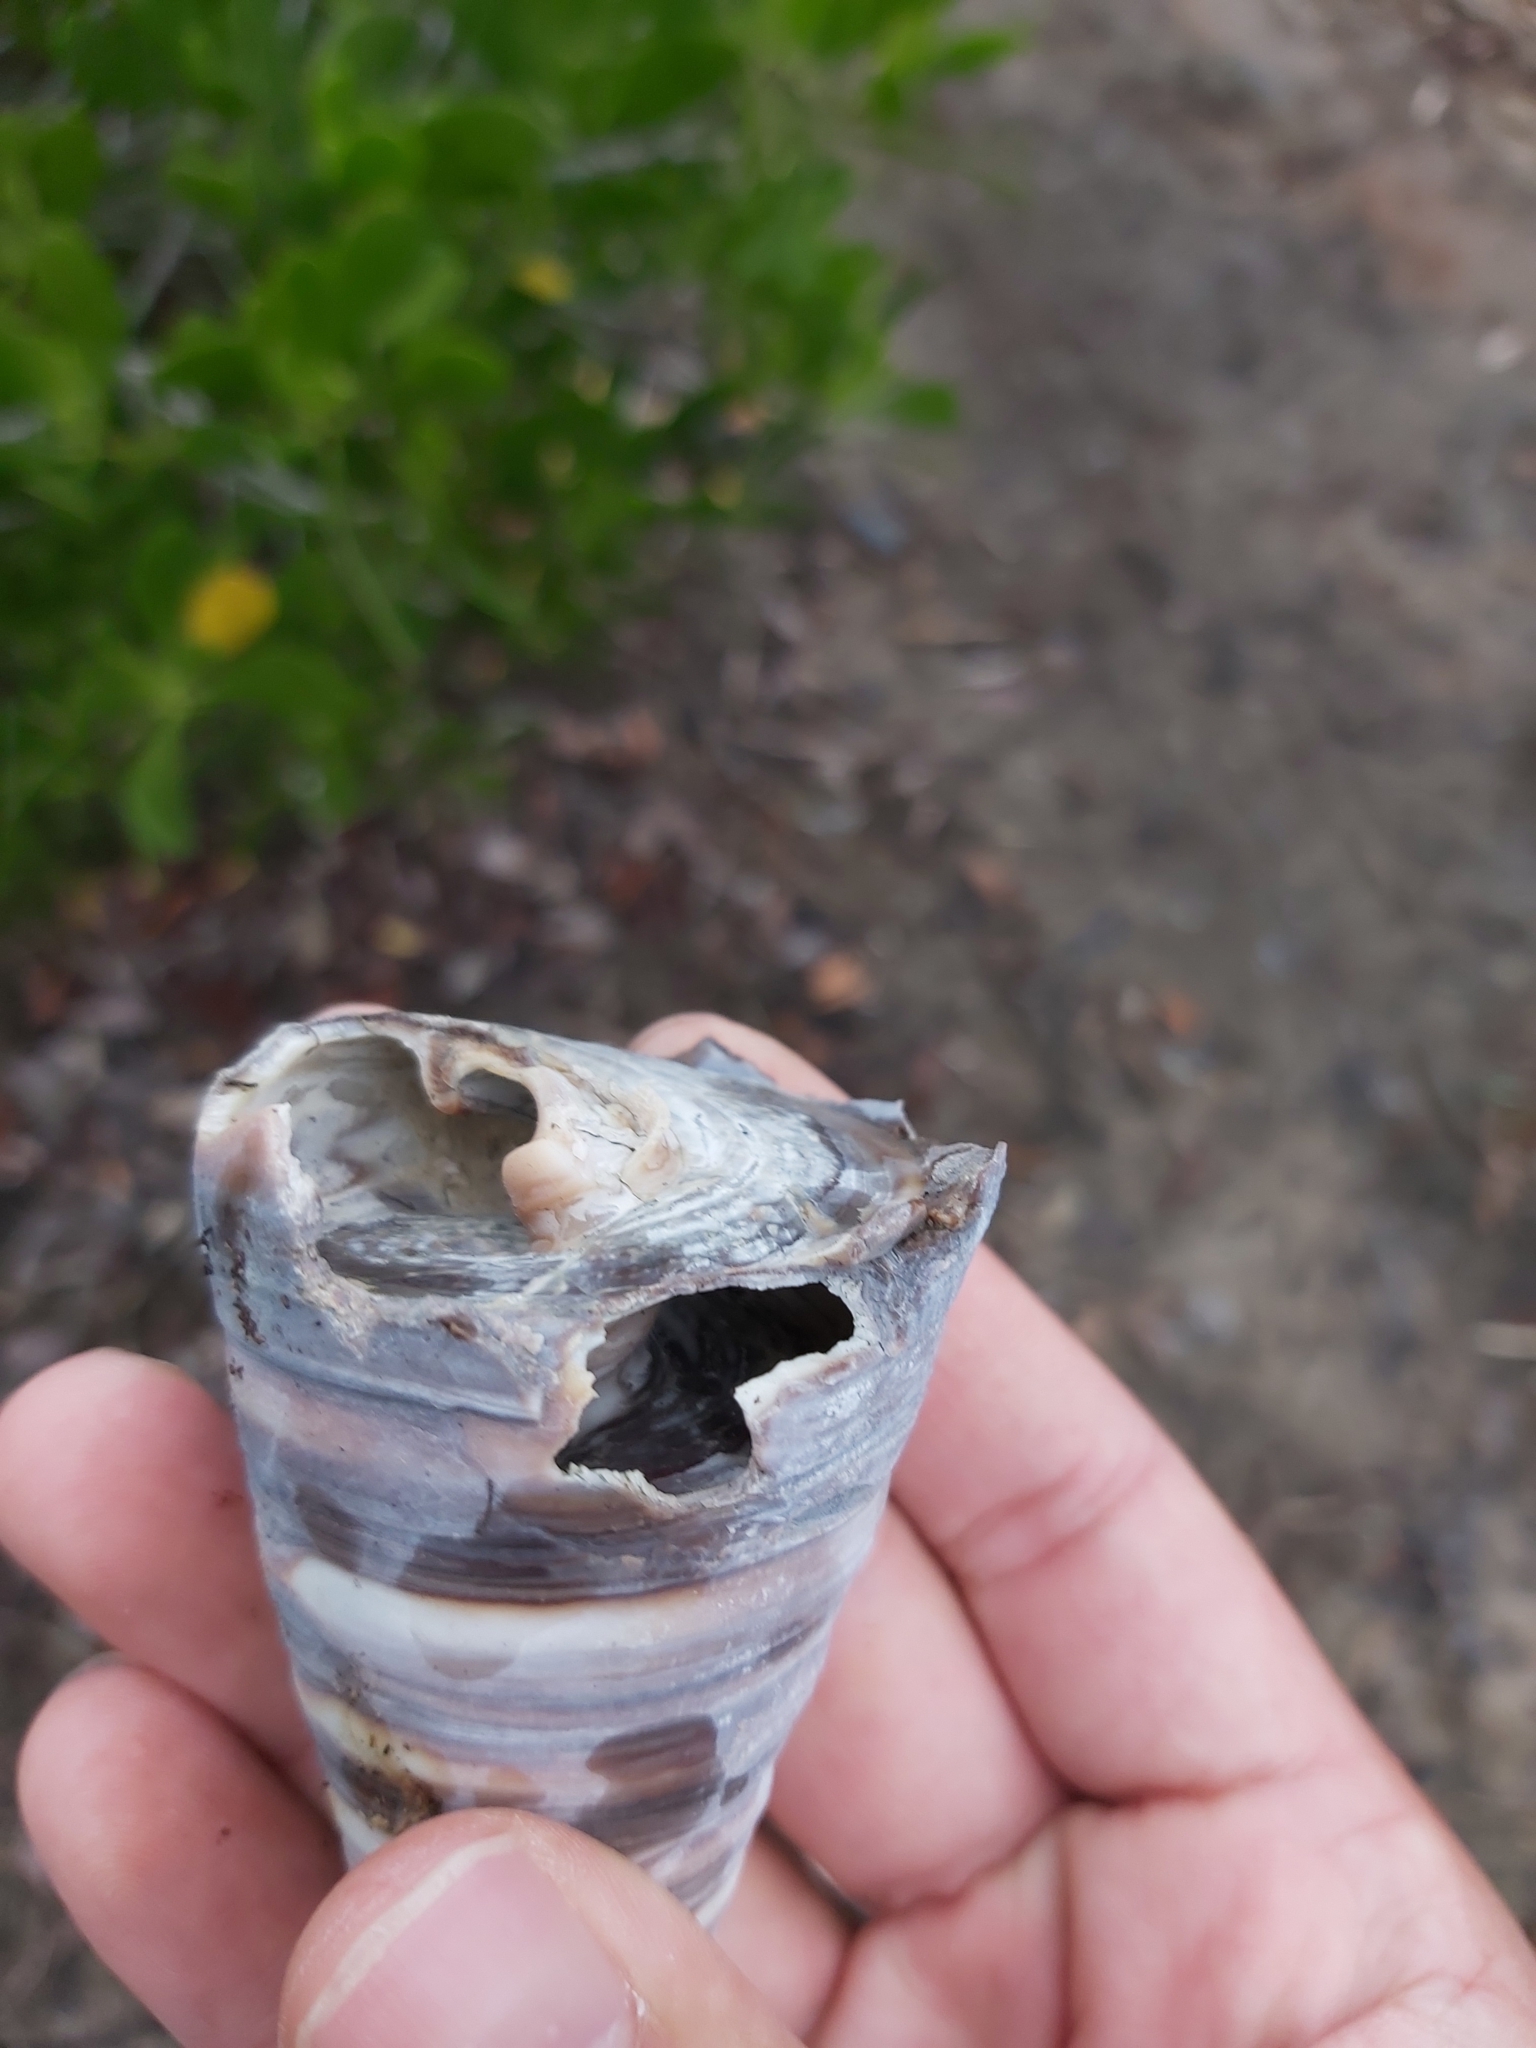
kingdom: Animalia
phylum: Mollusca
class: Gastropoda
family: Potamididae
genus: Telescopium
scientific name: Telescopium telescopium
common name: Telescope creeper
